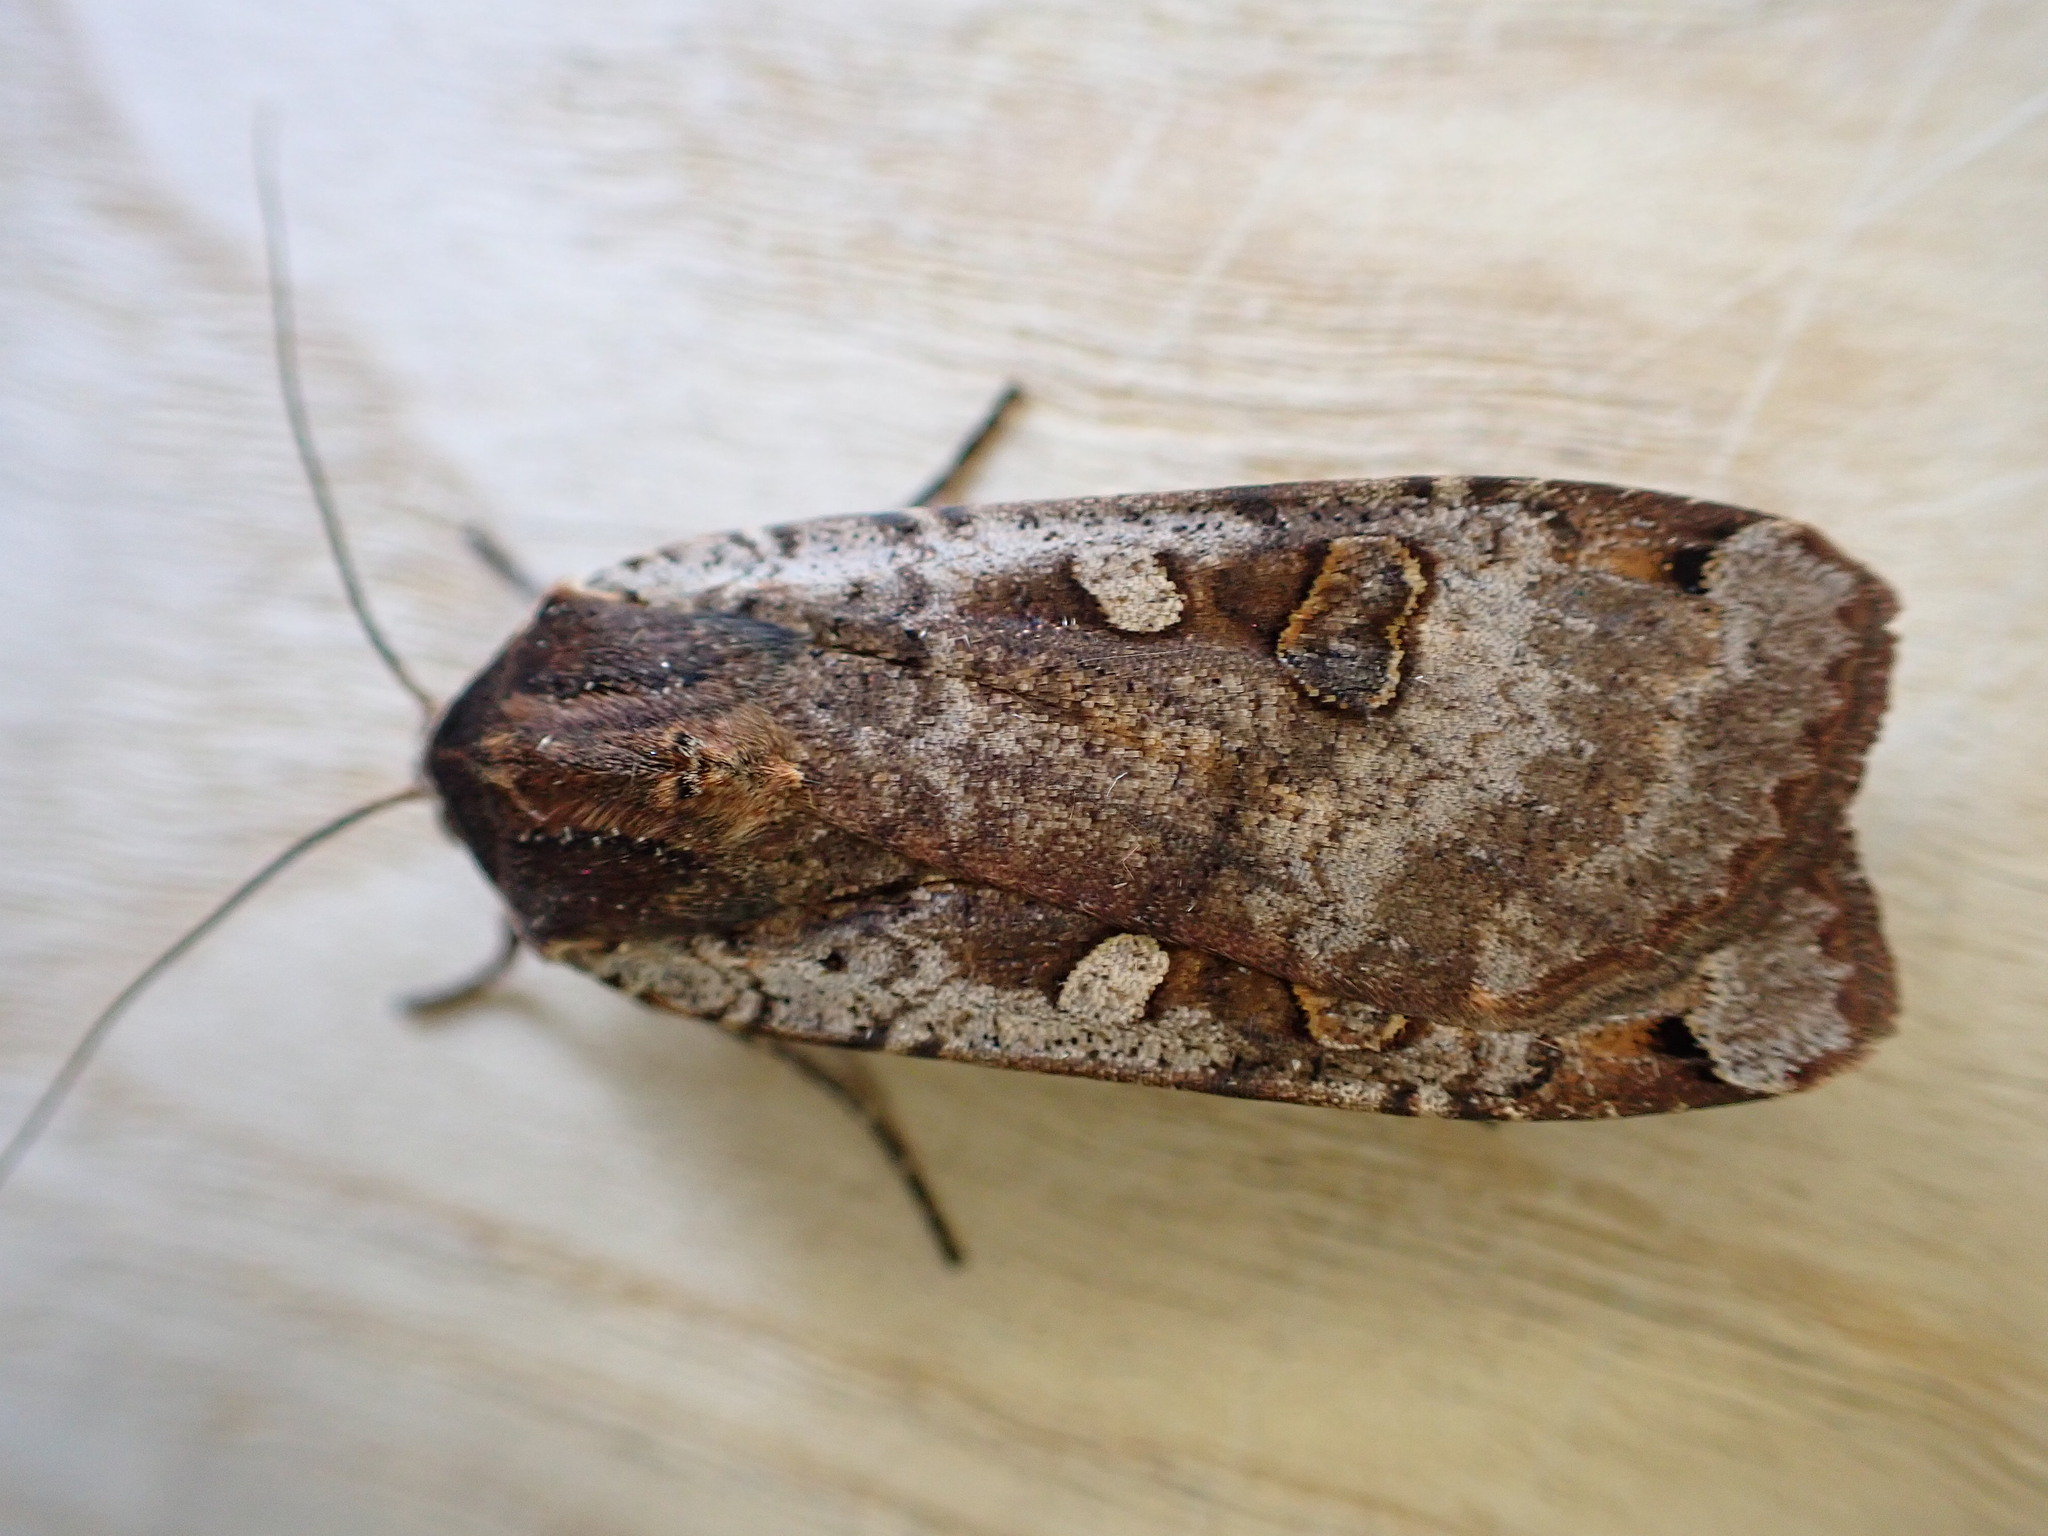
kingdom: Animalia
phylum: Arthropoda
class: Insecta
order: Lepidoptera
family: Noctuidae
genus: Noctua
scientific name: Noctua pronuba
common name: Large yellow underwing
